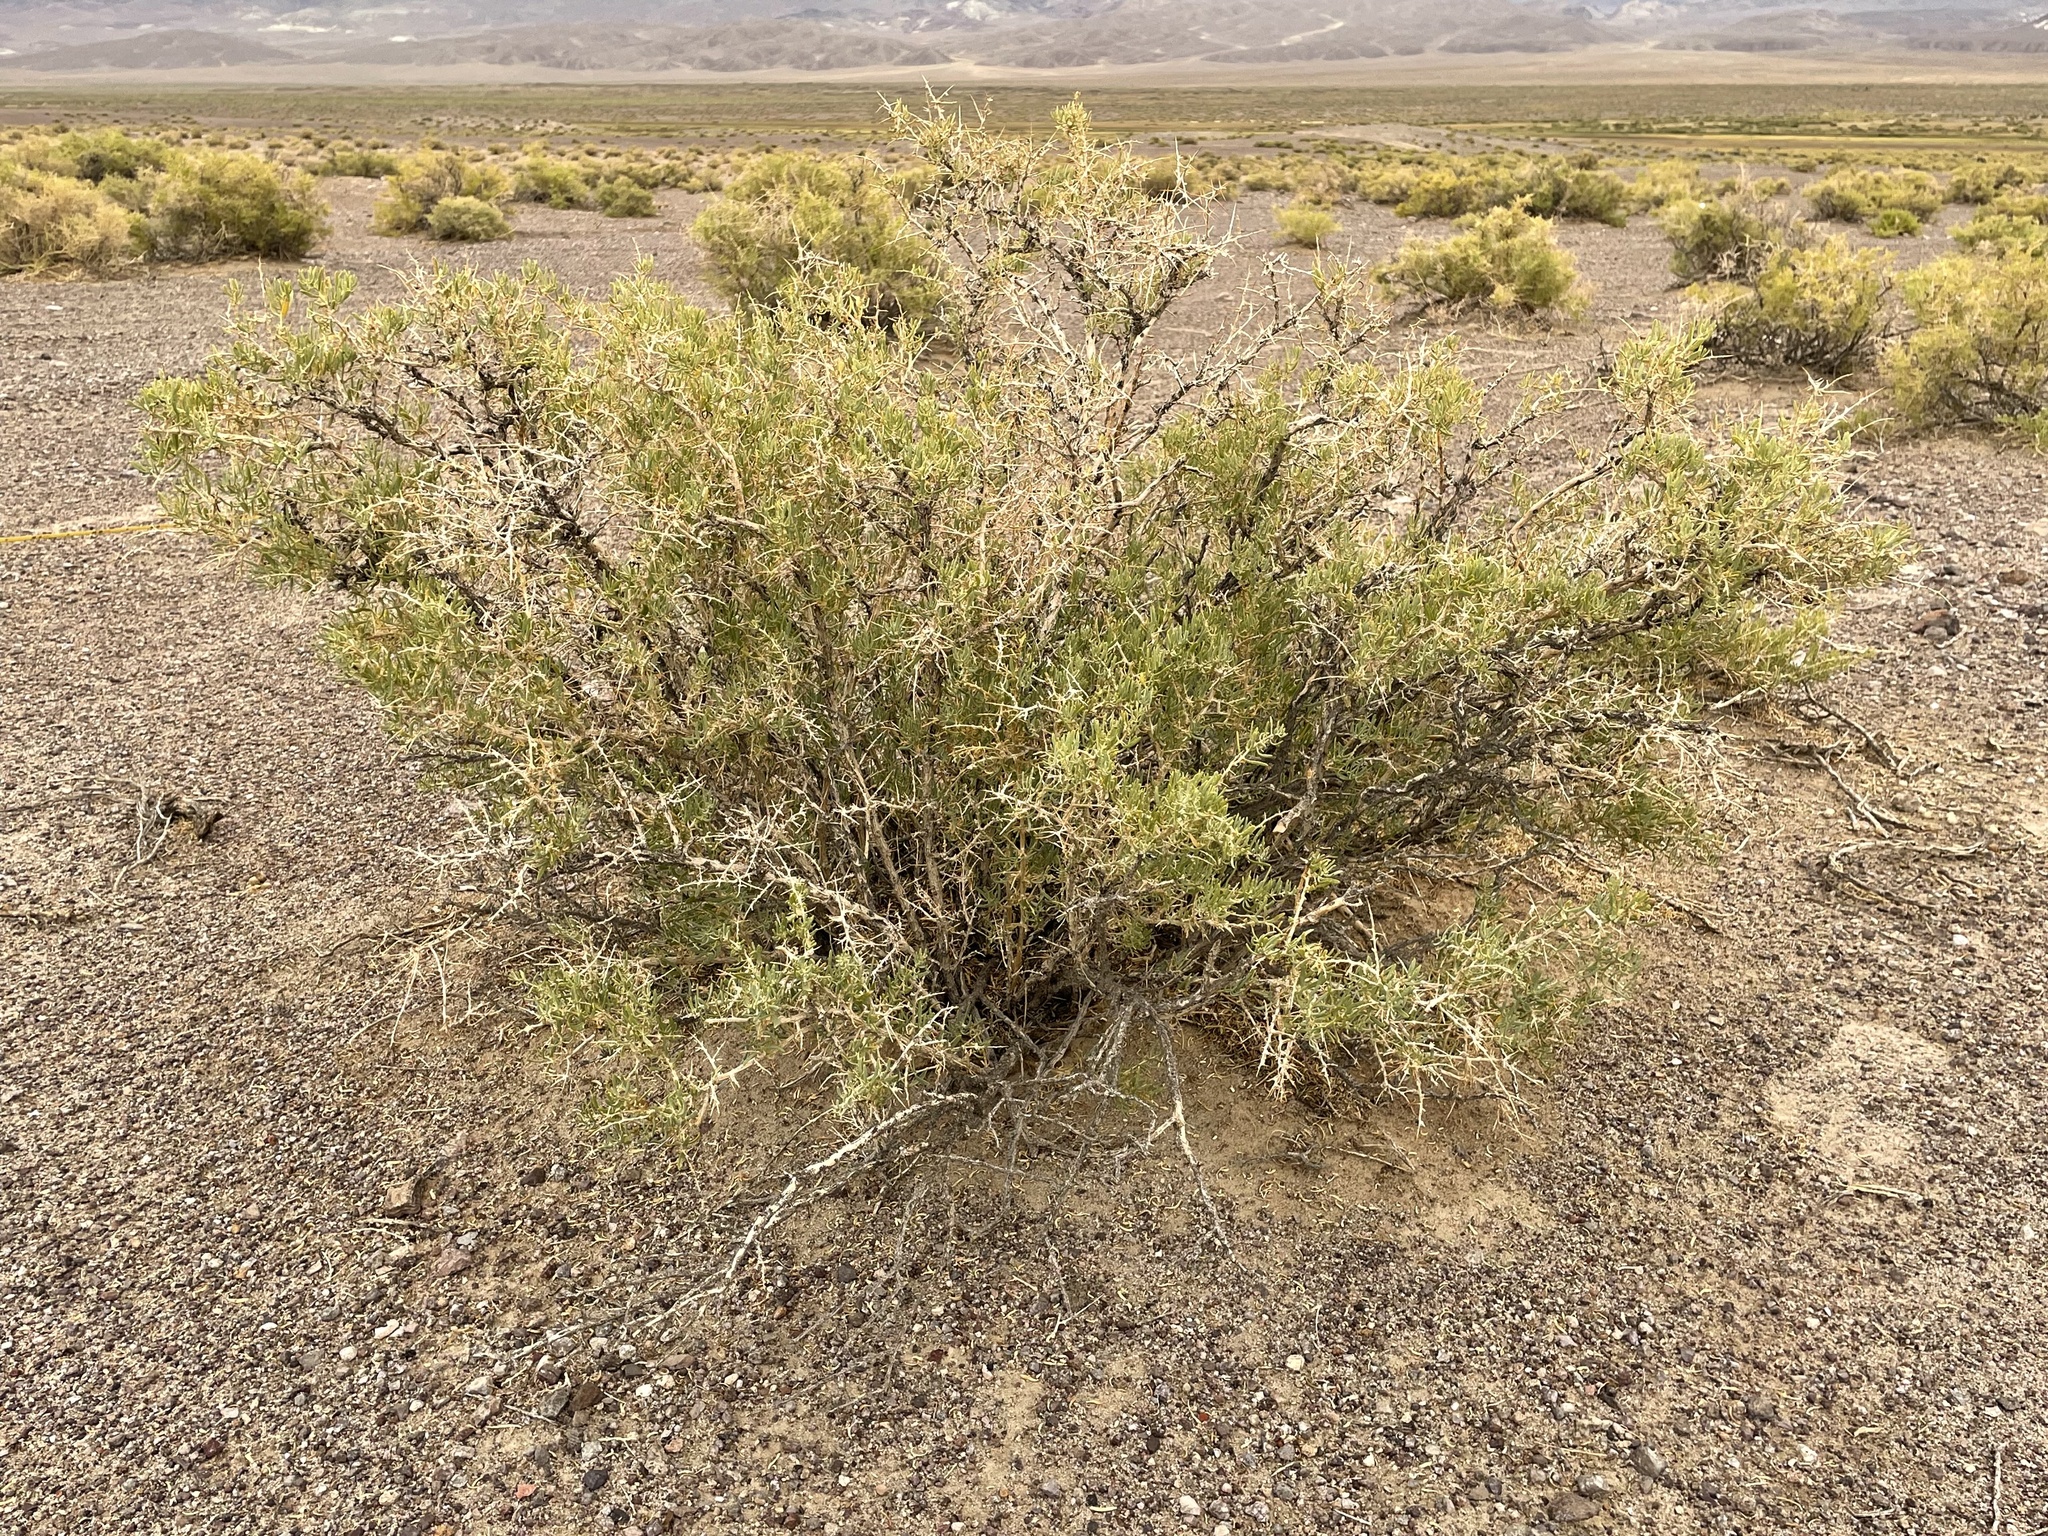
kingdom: Plantae
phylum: Tracheophyta
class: Magnoliopsida
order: Caryophyllales
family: Sarcobataceae
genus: Sarcobatus
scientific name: Sarcobatus vermiculatus
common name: Greasewood
